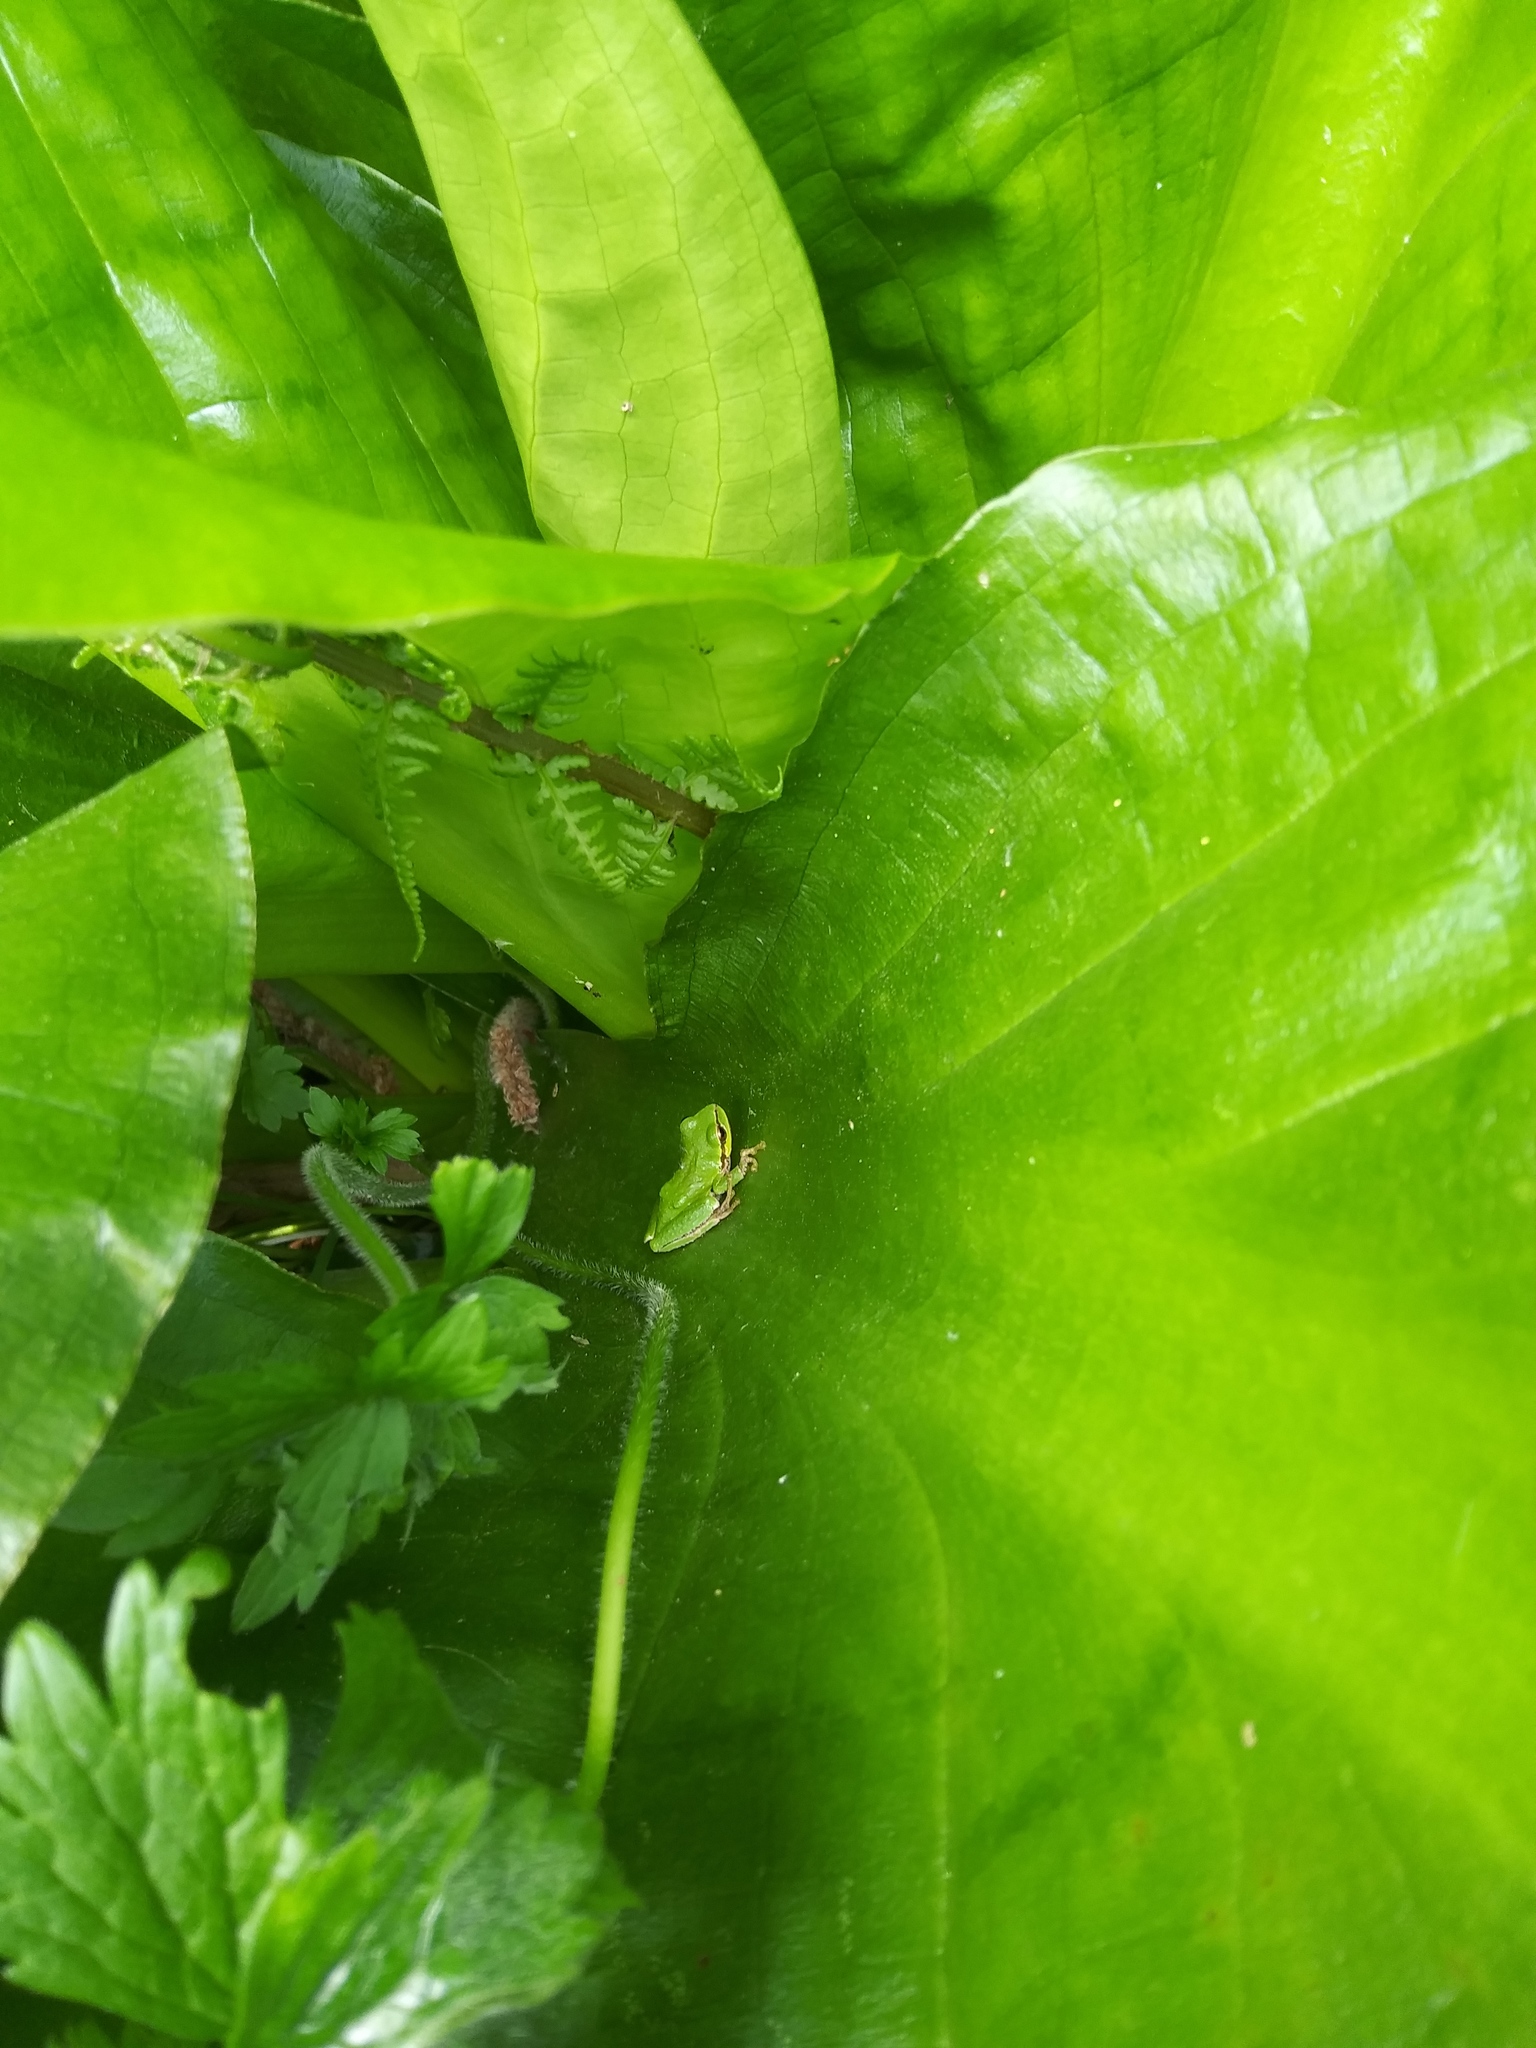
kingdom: Animalia
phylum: Chordata
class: Amphibia
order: Anura
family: Hylidae
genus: Pseudacris
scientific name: Pseudacris regilla
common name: Pacific chorus frog
